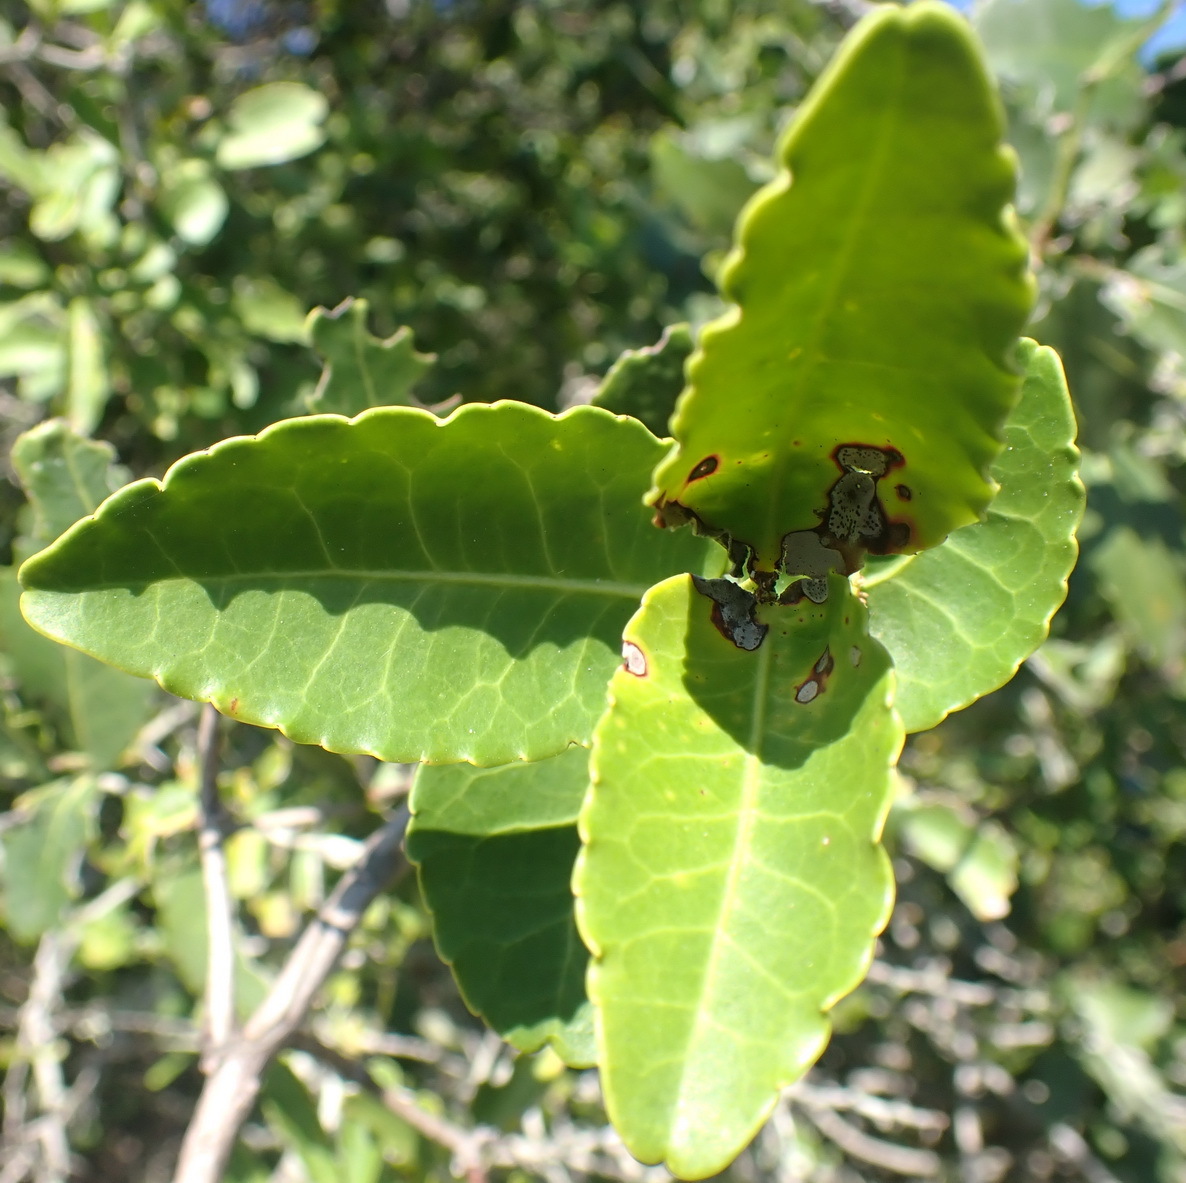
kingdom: Plantae
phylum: Tracheophyta
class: Magnoliopsida
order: Celastrales
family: Celastraceae
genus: Lauridia
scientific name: Lauridia tetragona
